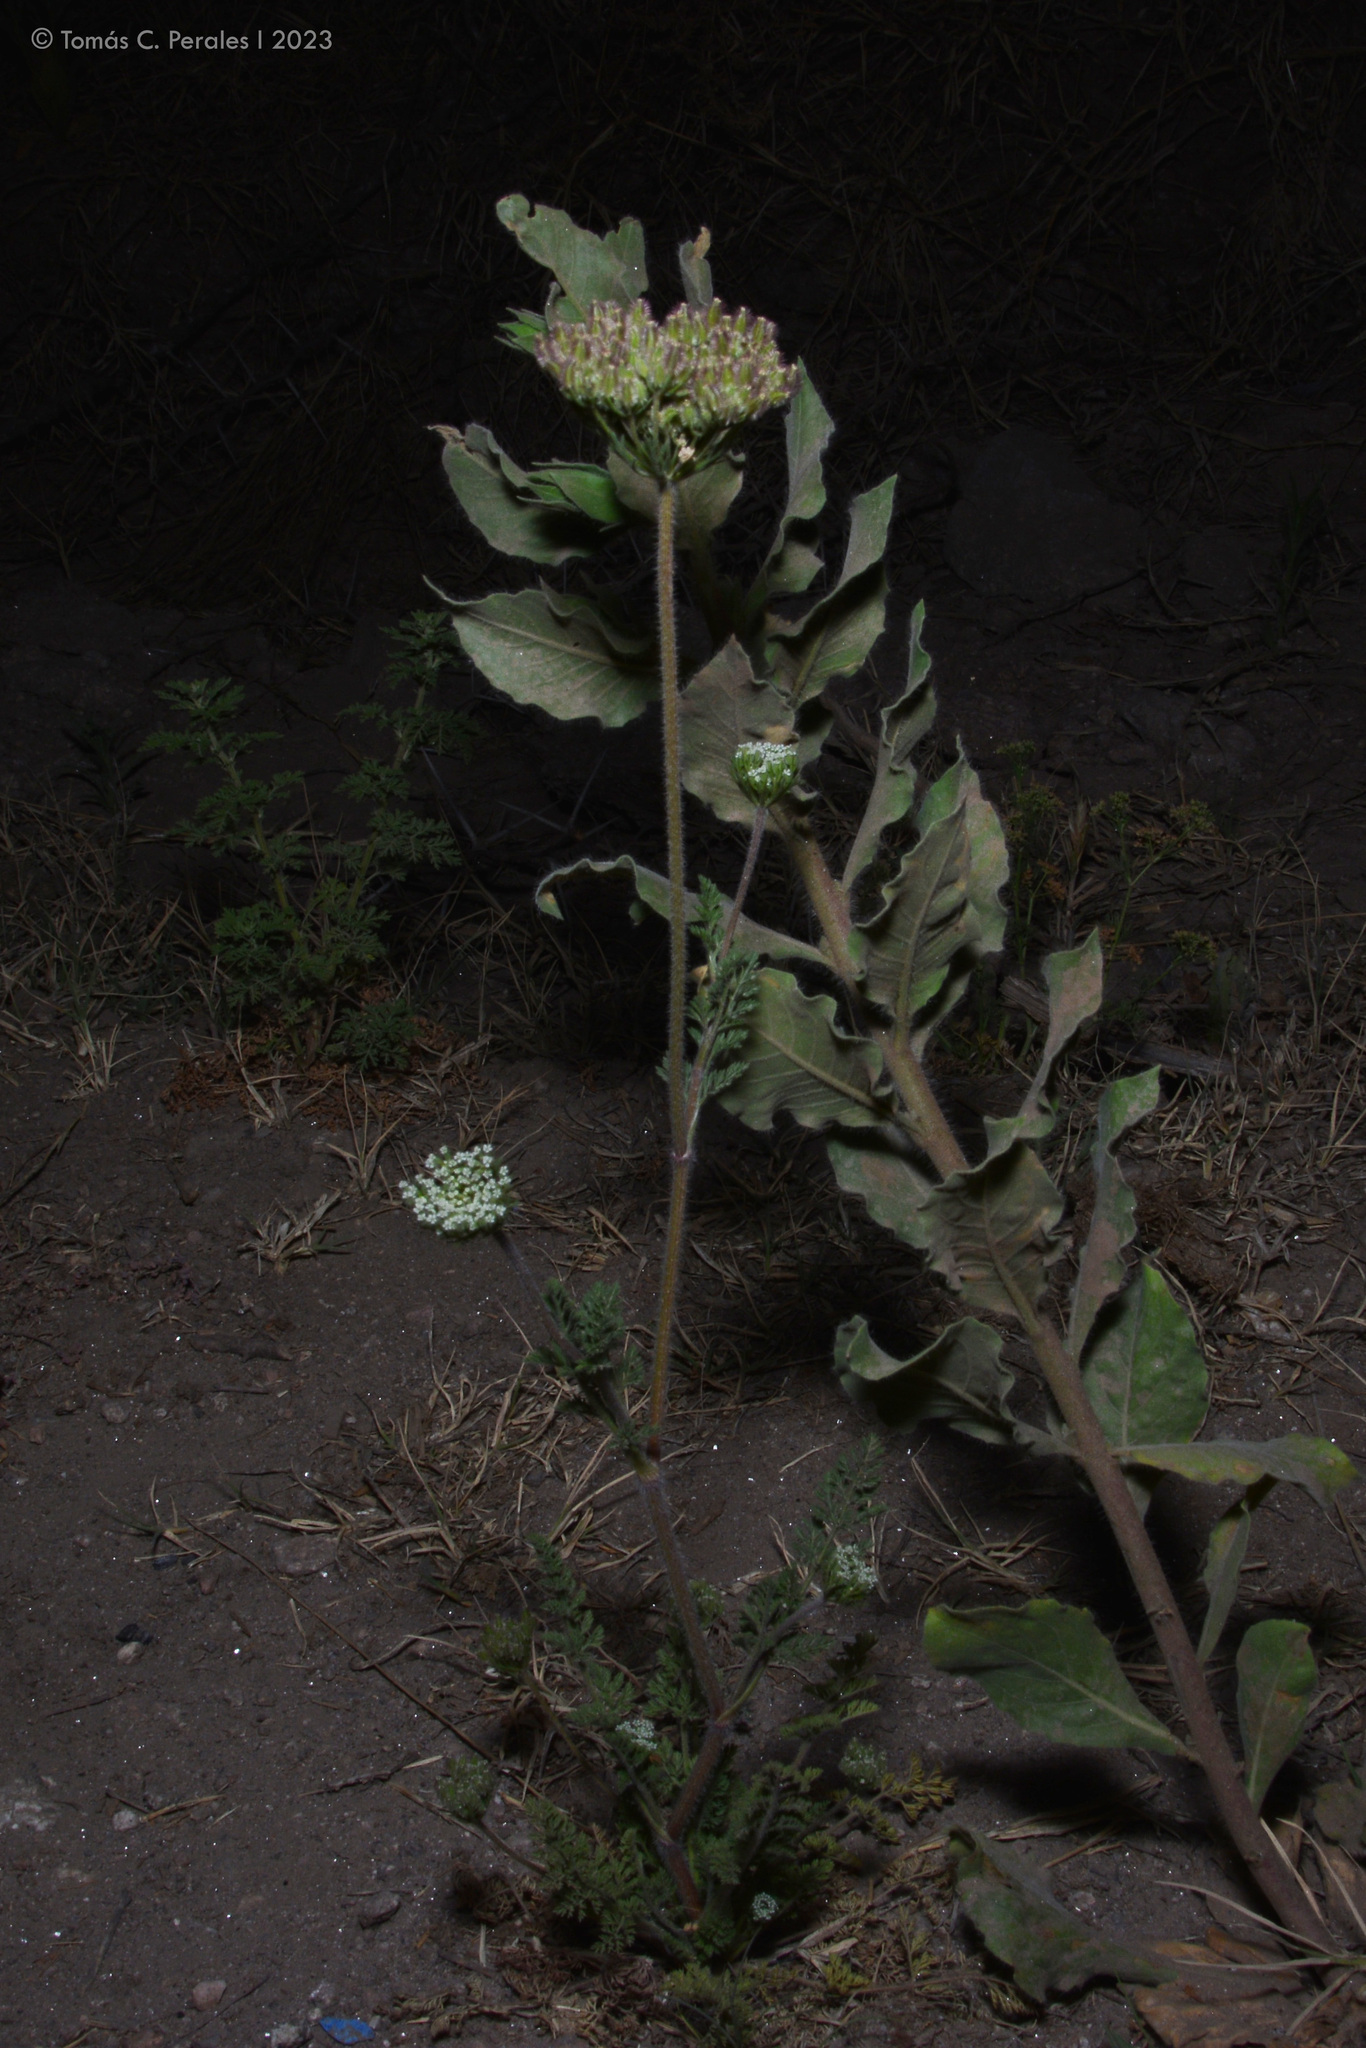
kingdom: Plantae
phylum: Tracheophyta
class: Magnoliopsida
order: Apiales
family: Apiaceae
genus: Daucus
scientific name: Daucus pusillus
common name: Southwest wild carrot
